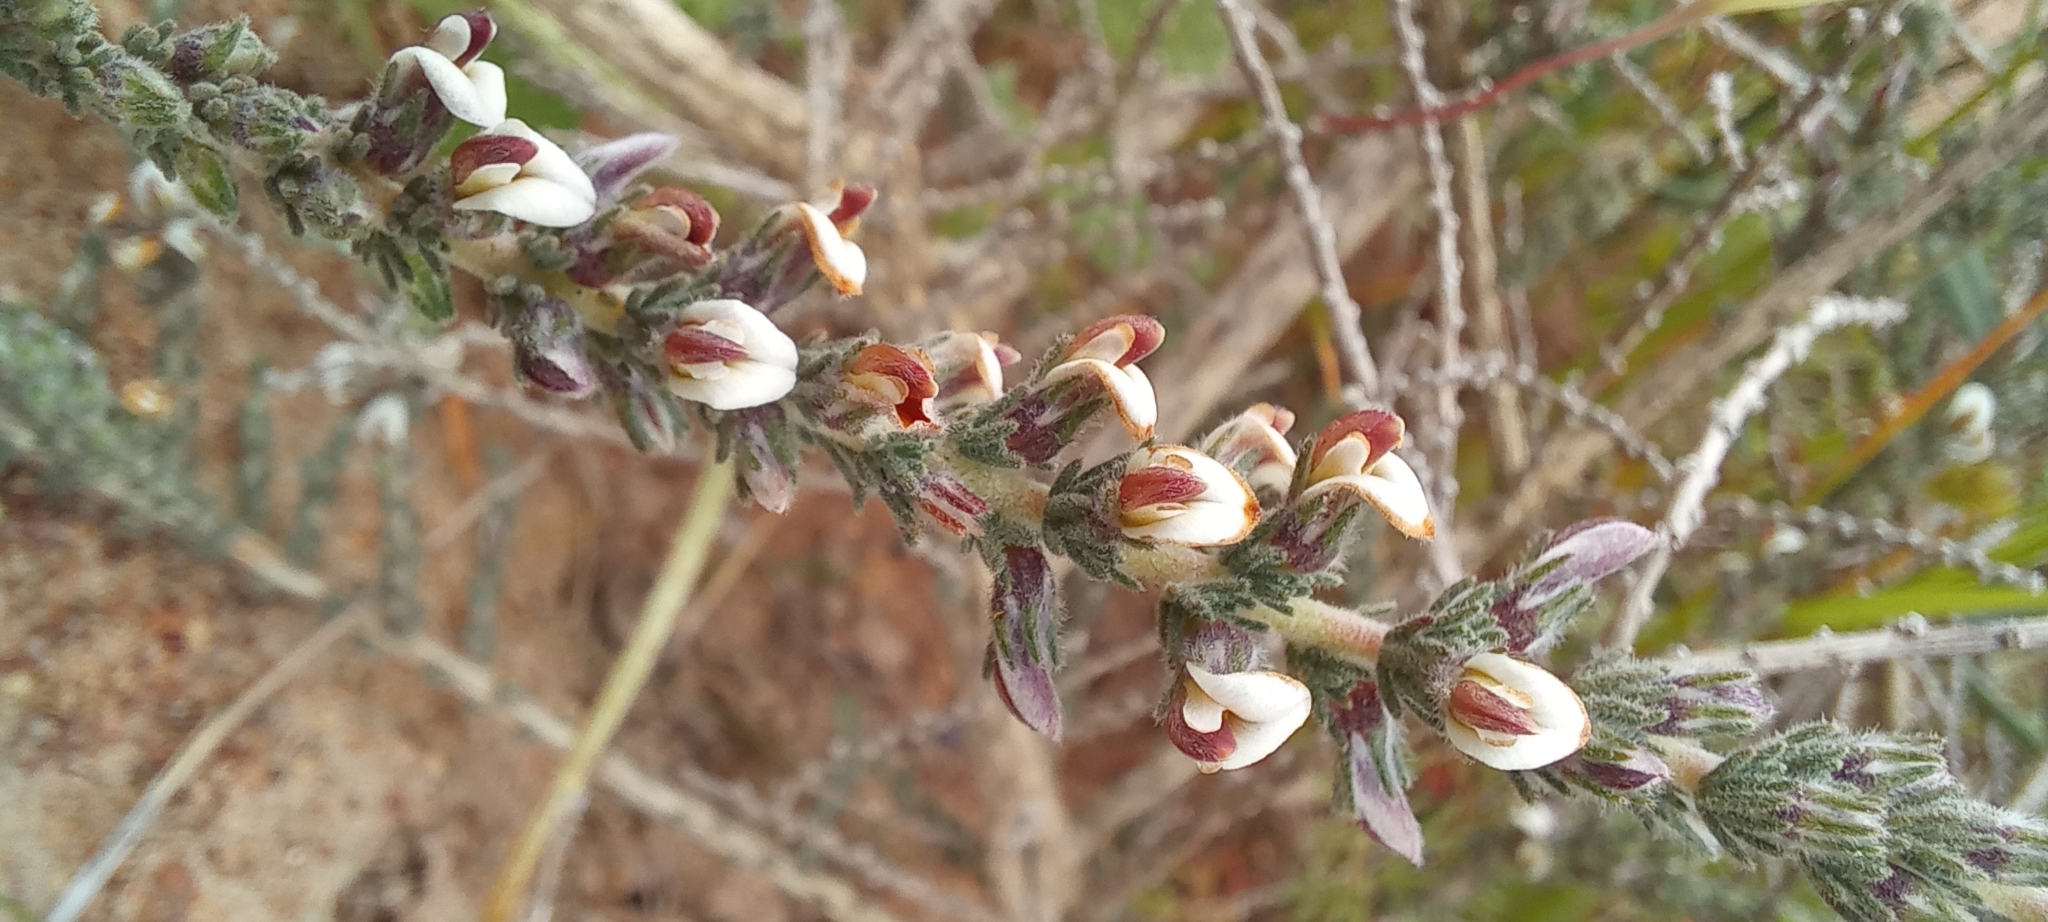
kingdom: Plantae
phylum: Tracheophyta
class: Magnoliopsida
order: Fabales
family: Fabaceae
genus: Aspalathus
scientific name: Aspalathus hispida
